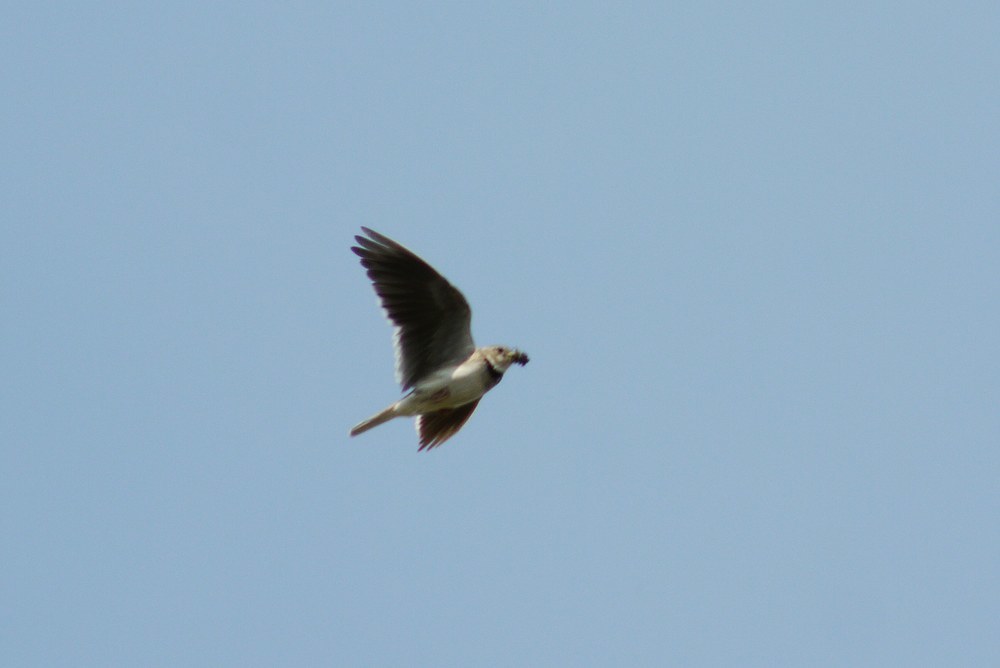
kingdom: Animalia
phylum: Chordata
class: Aves
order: Passeriformes
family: Alaudidae
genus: Melanocorypha
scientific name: Melanocorypha calandra
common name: Calandra lark
